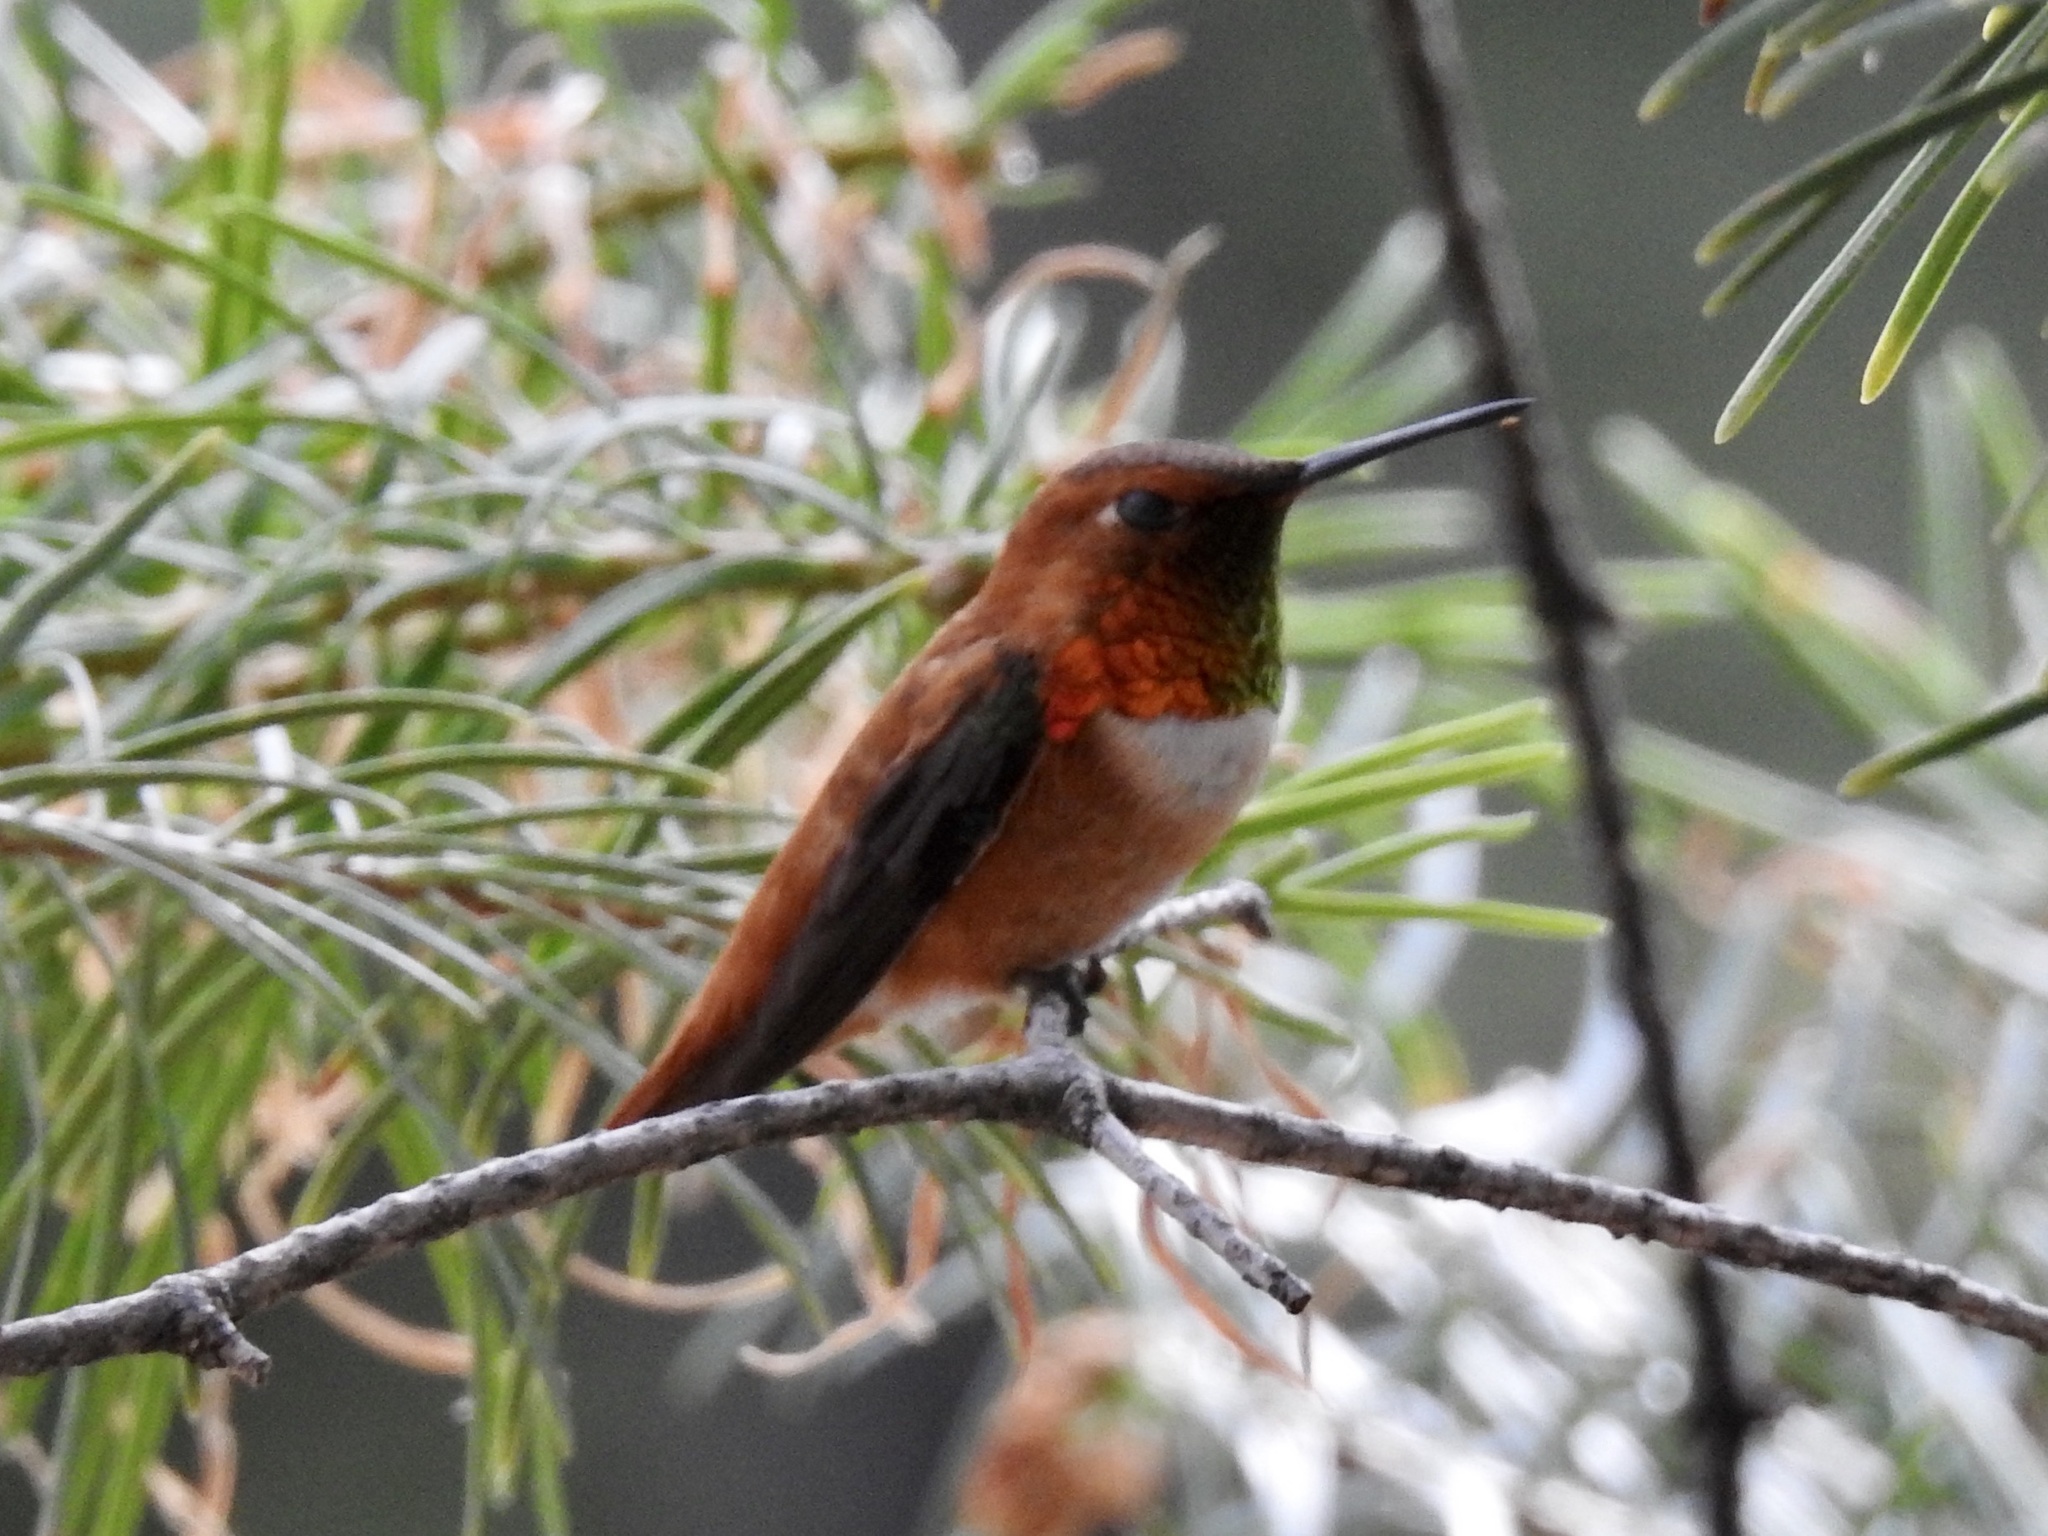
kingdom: Animalia
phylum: Chordata
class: Aves
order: Apodiformes
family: Trochilidae
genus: Selasphorus
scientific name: Selasphorus rufus
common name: Rufous hummingbird
